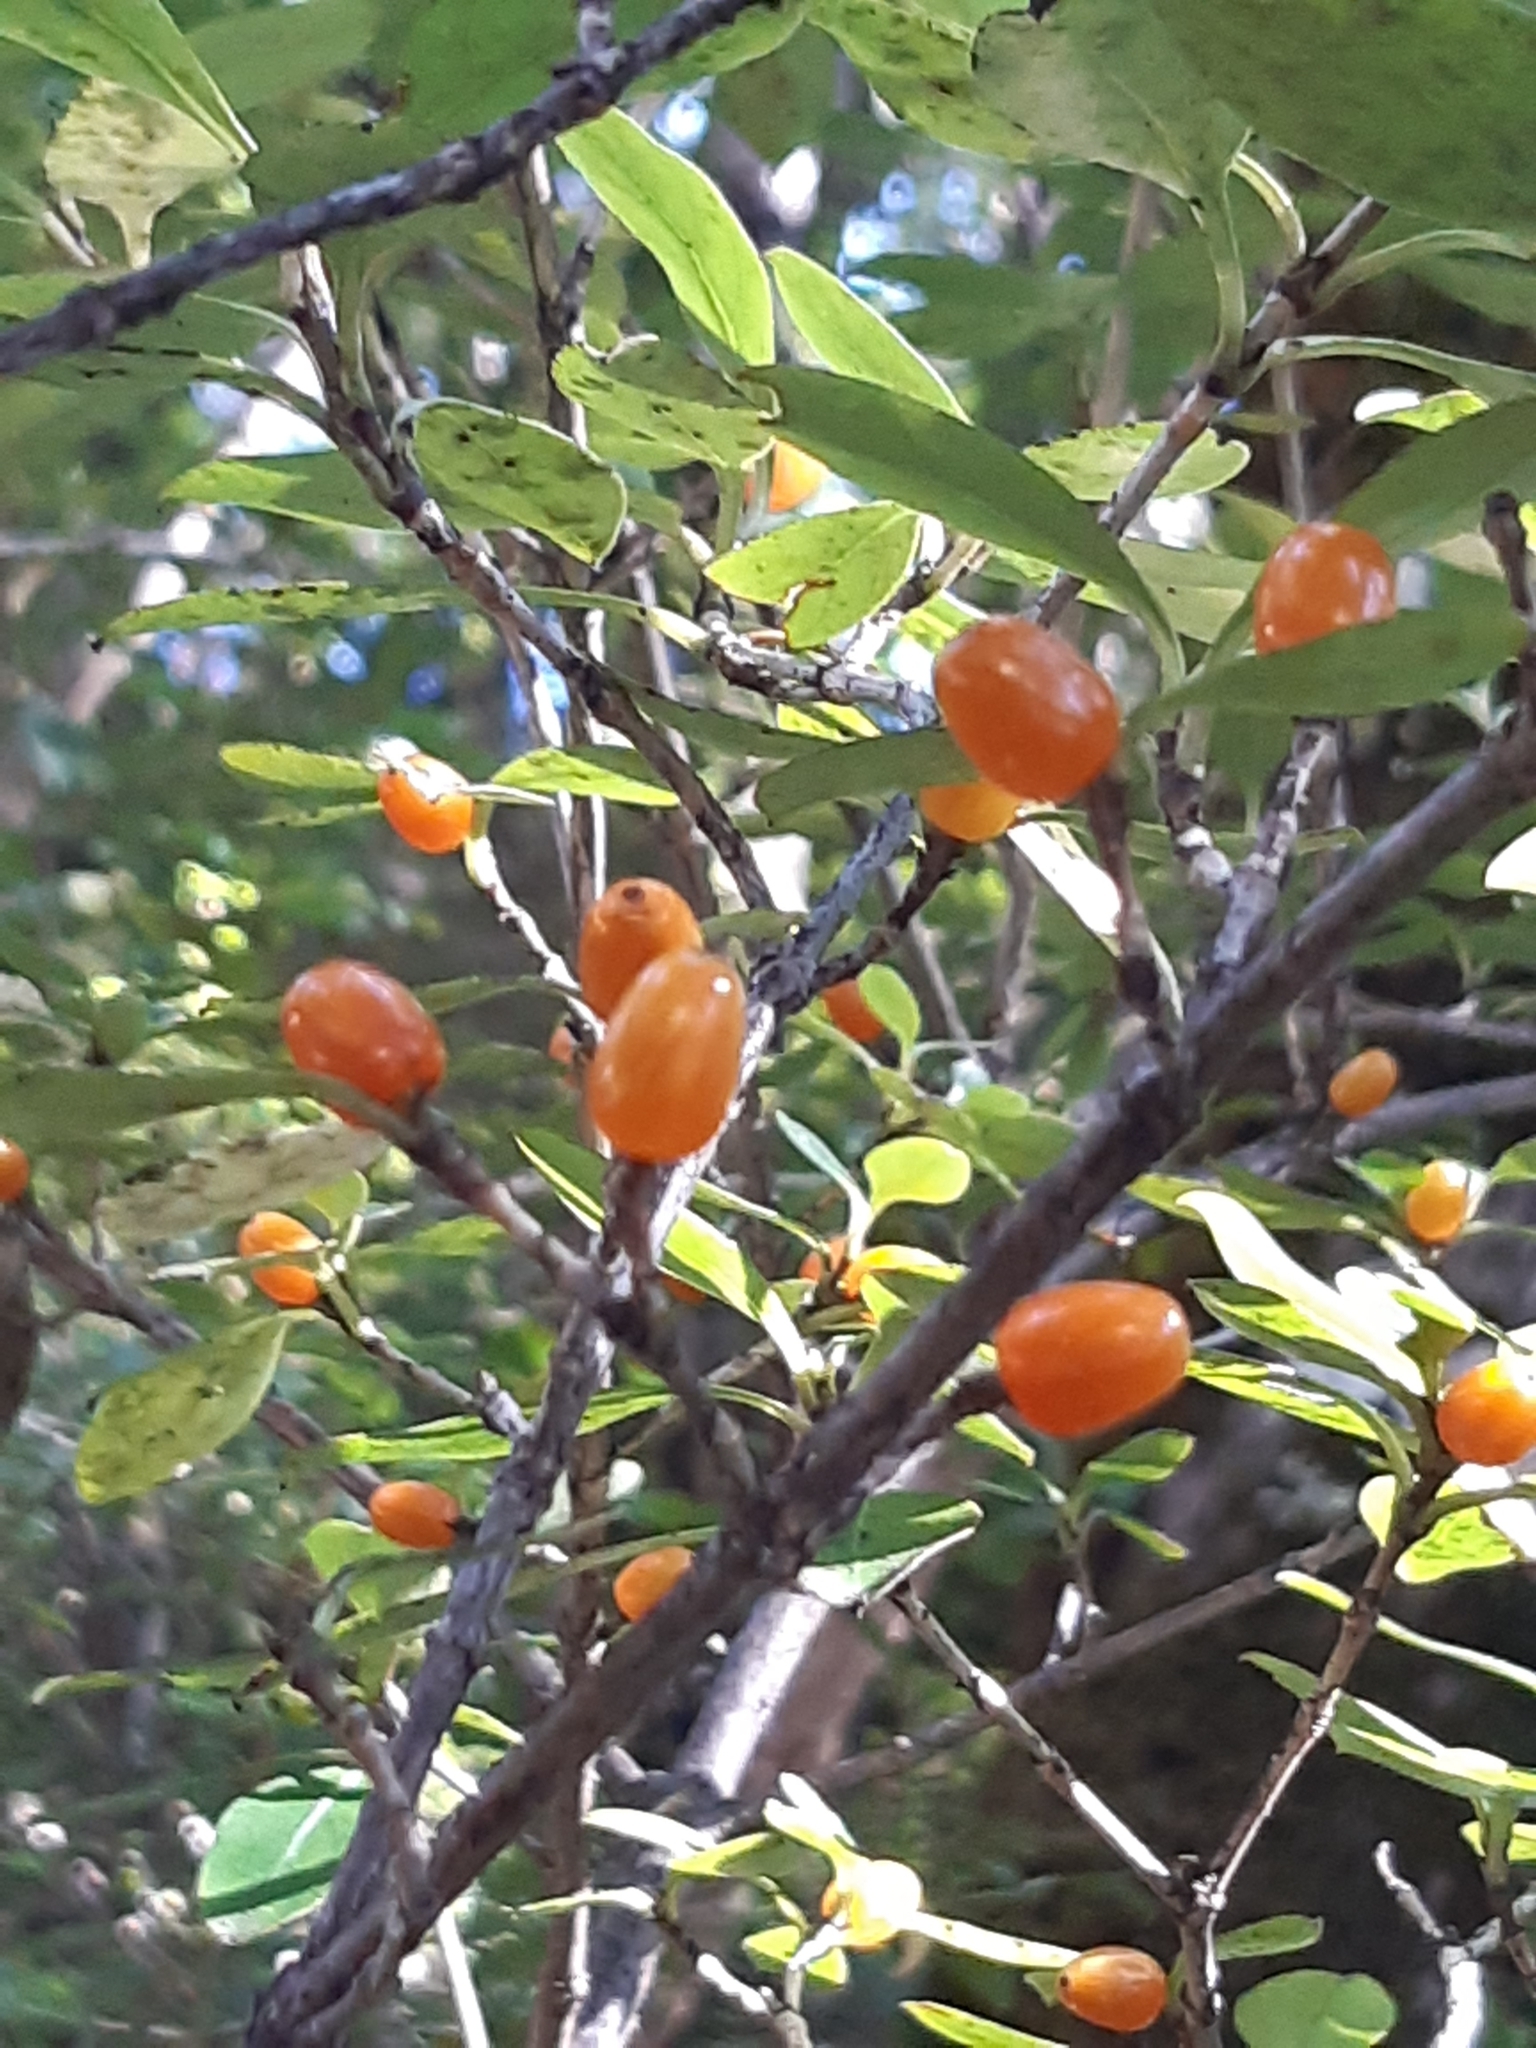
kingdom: Plantae
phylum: Tracheophyta
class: Magnoliopsida
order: Gentianales
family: Rubiaceae
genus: Coprosma
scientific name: Coprosma foetidissima
